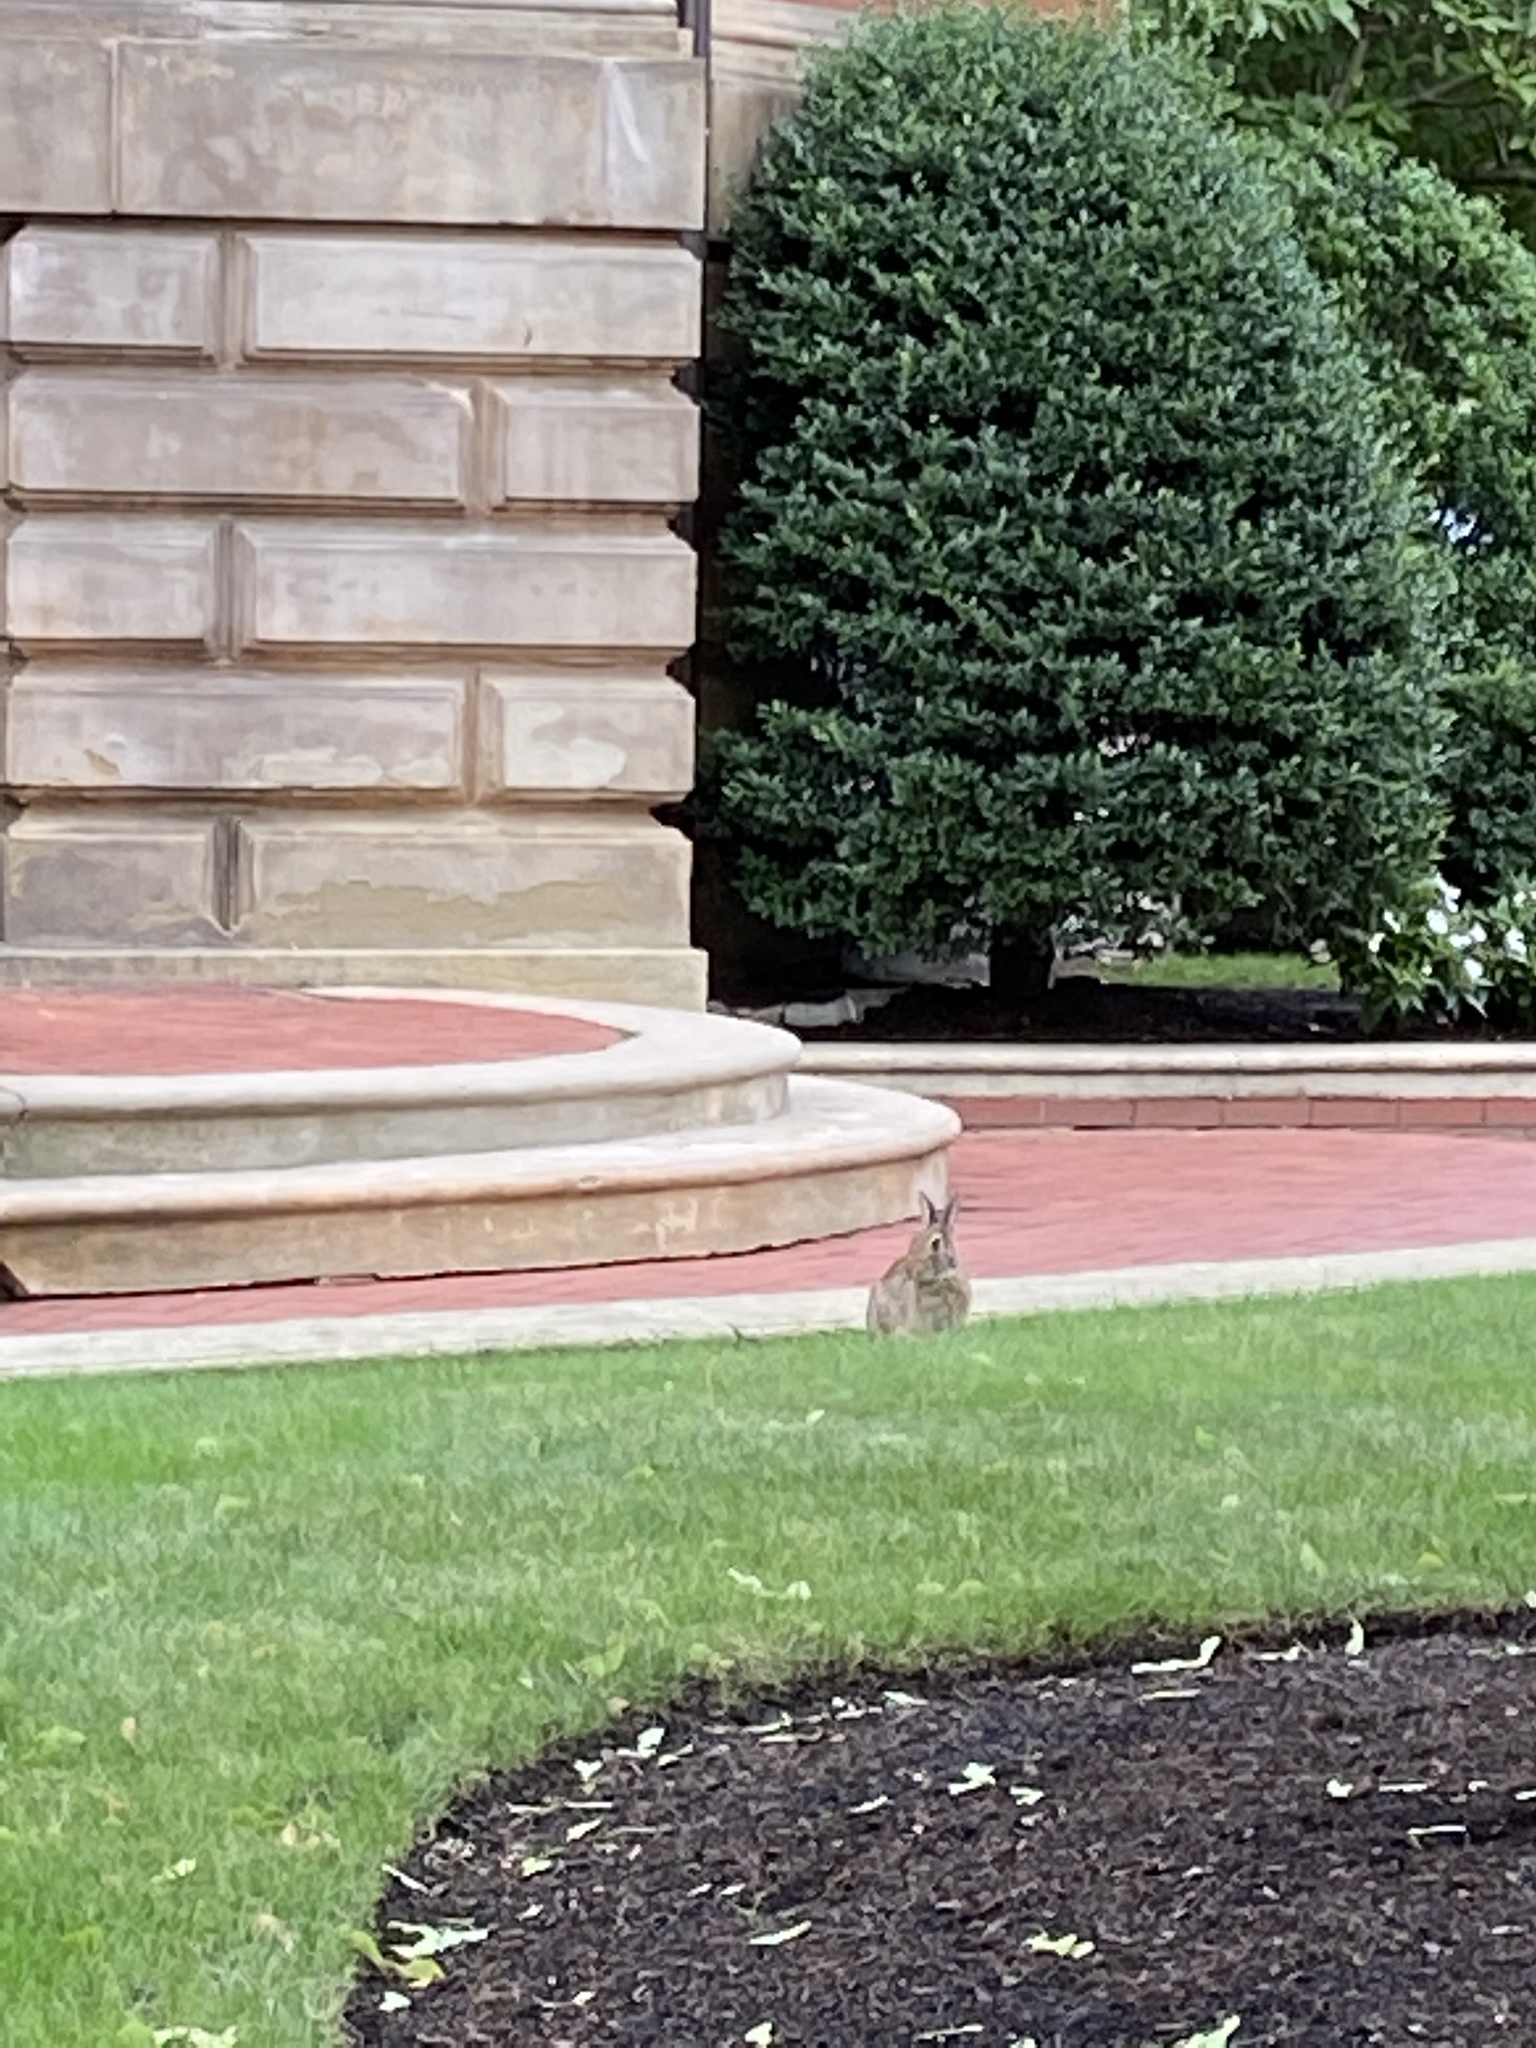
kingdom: Animalia
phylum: Chordata
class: Mammalia
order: Lagomorpha
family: Leporidae
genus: Sylvilagus
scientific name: Sylvilagus floridanus
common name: Eastern cottontail
